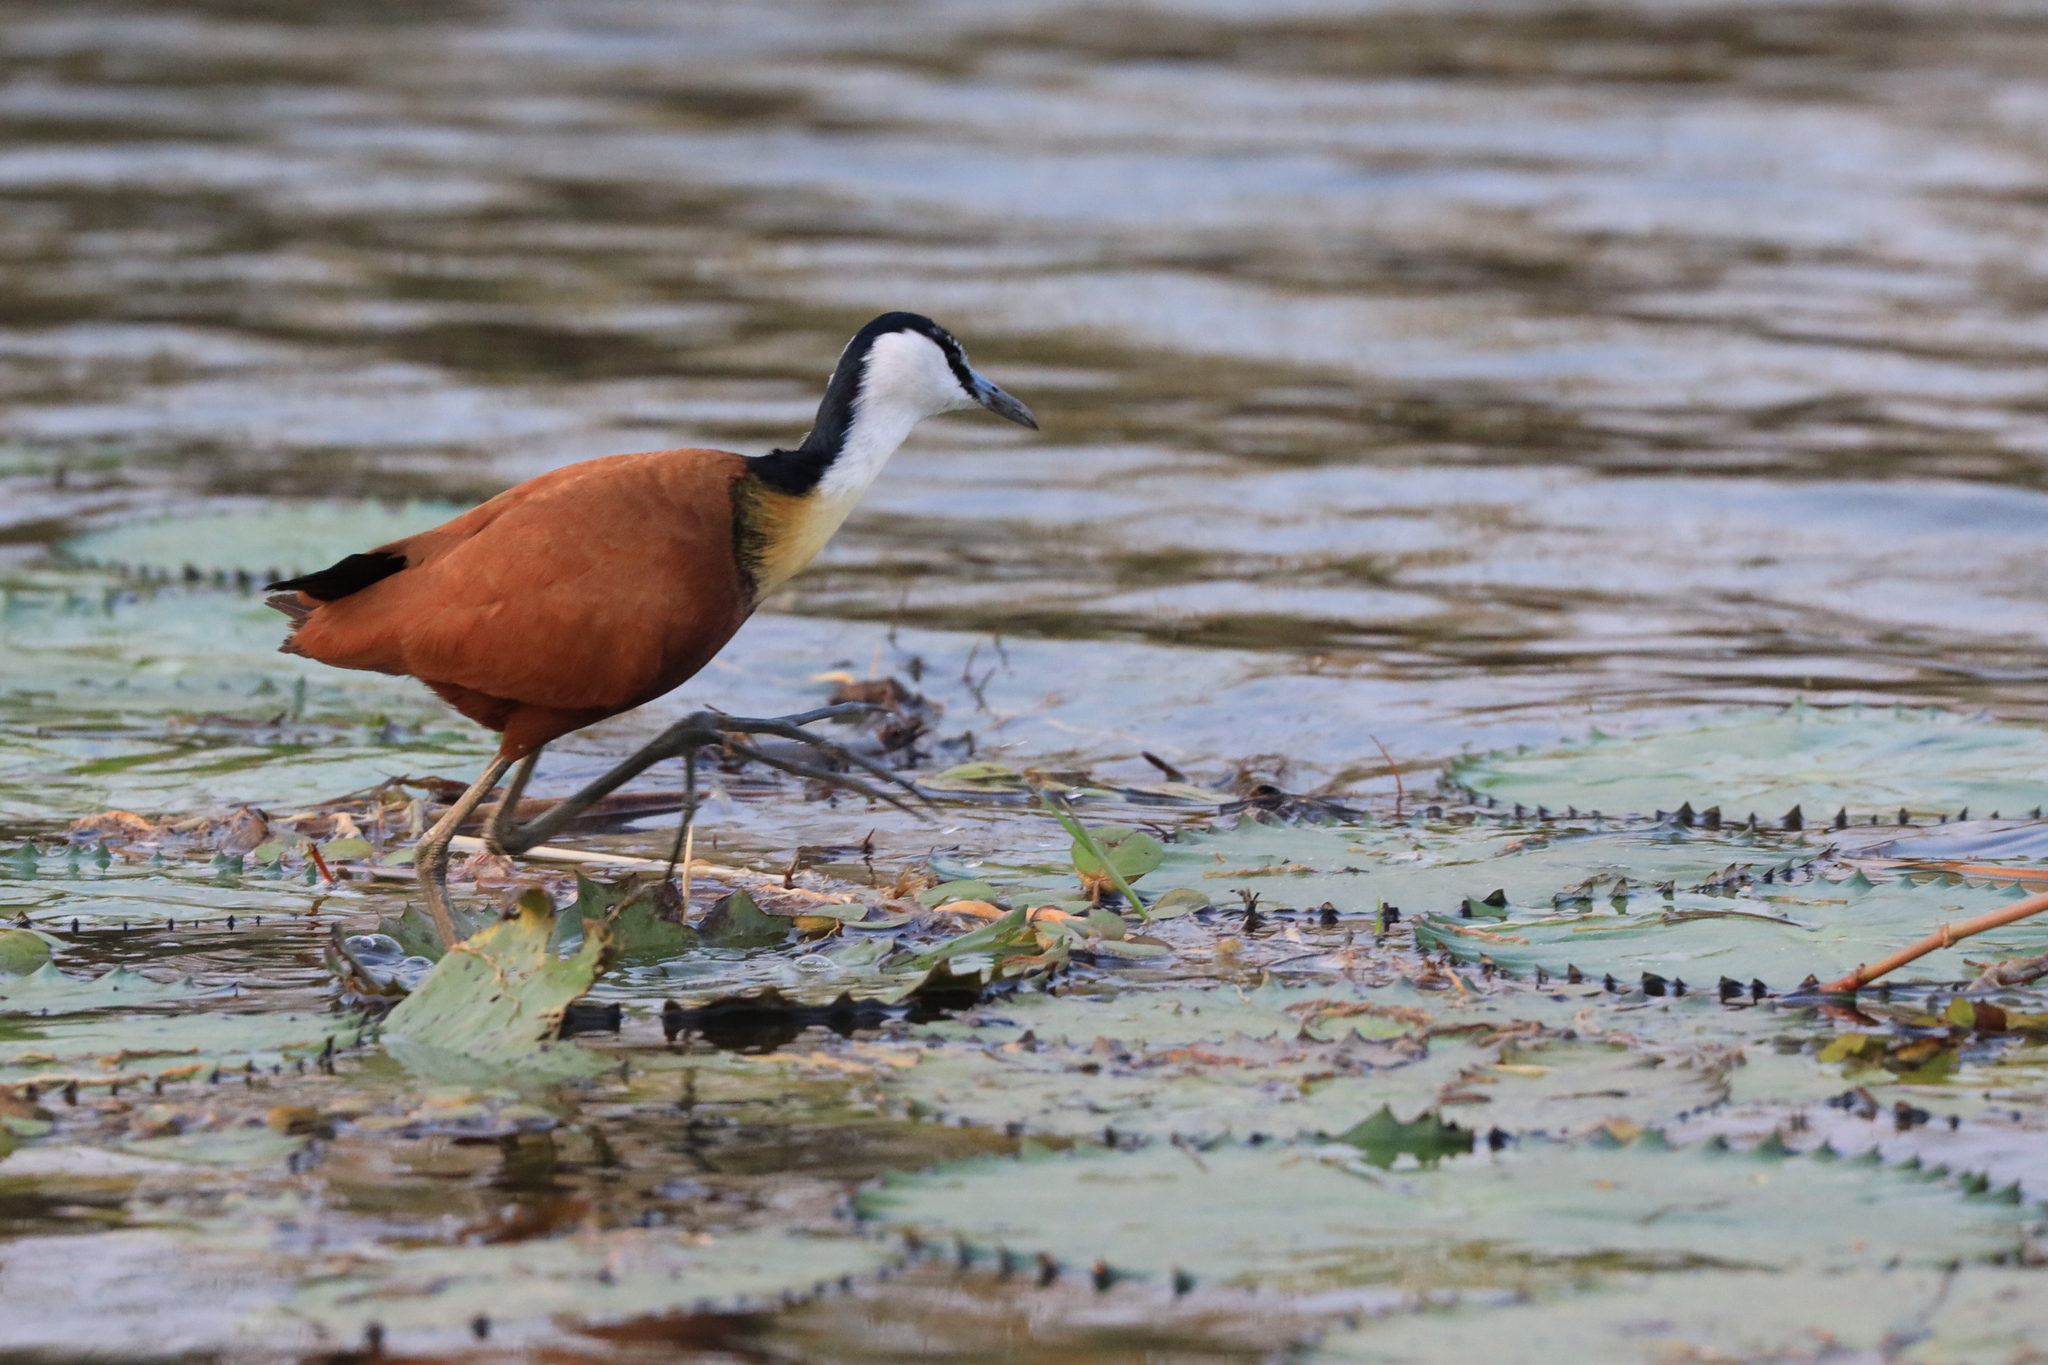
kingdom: Animalia
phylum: Chordata
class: Aves
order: Charadriiformes
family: Jacanidae
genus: Actophilornis
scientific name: Actophilornis africanus
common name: African jacana
